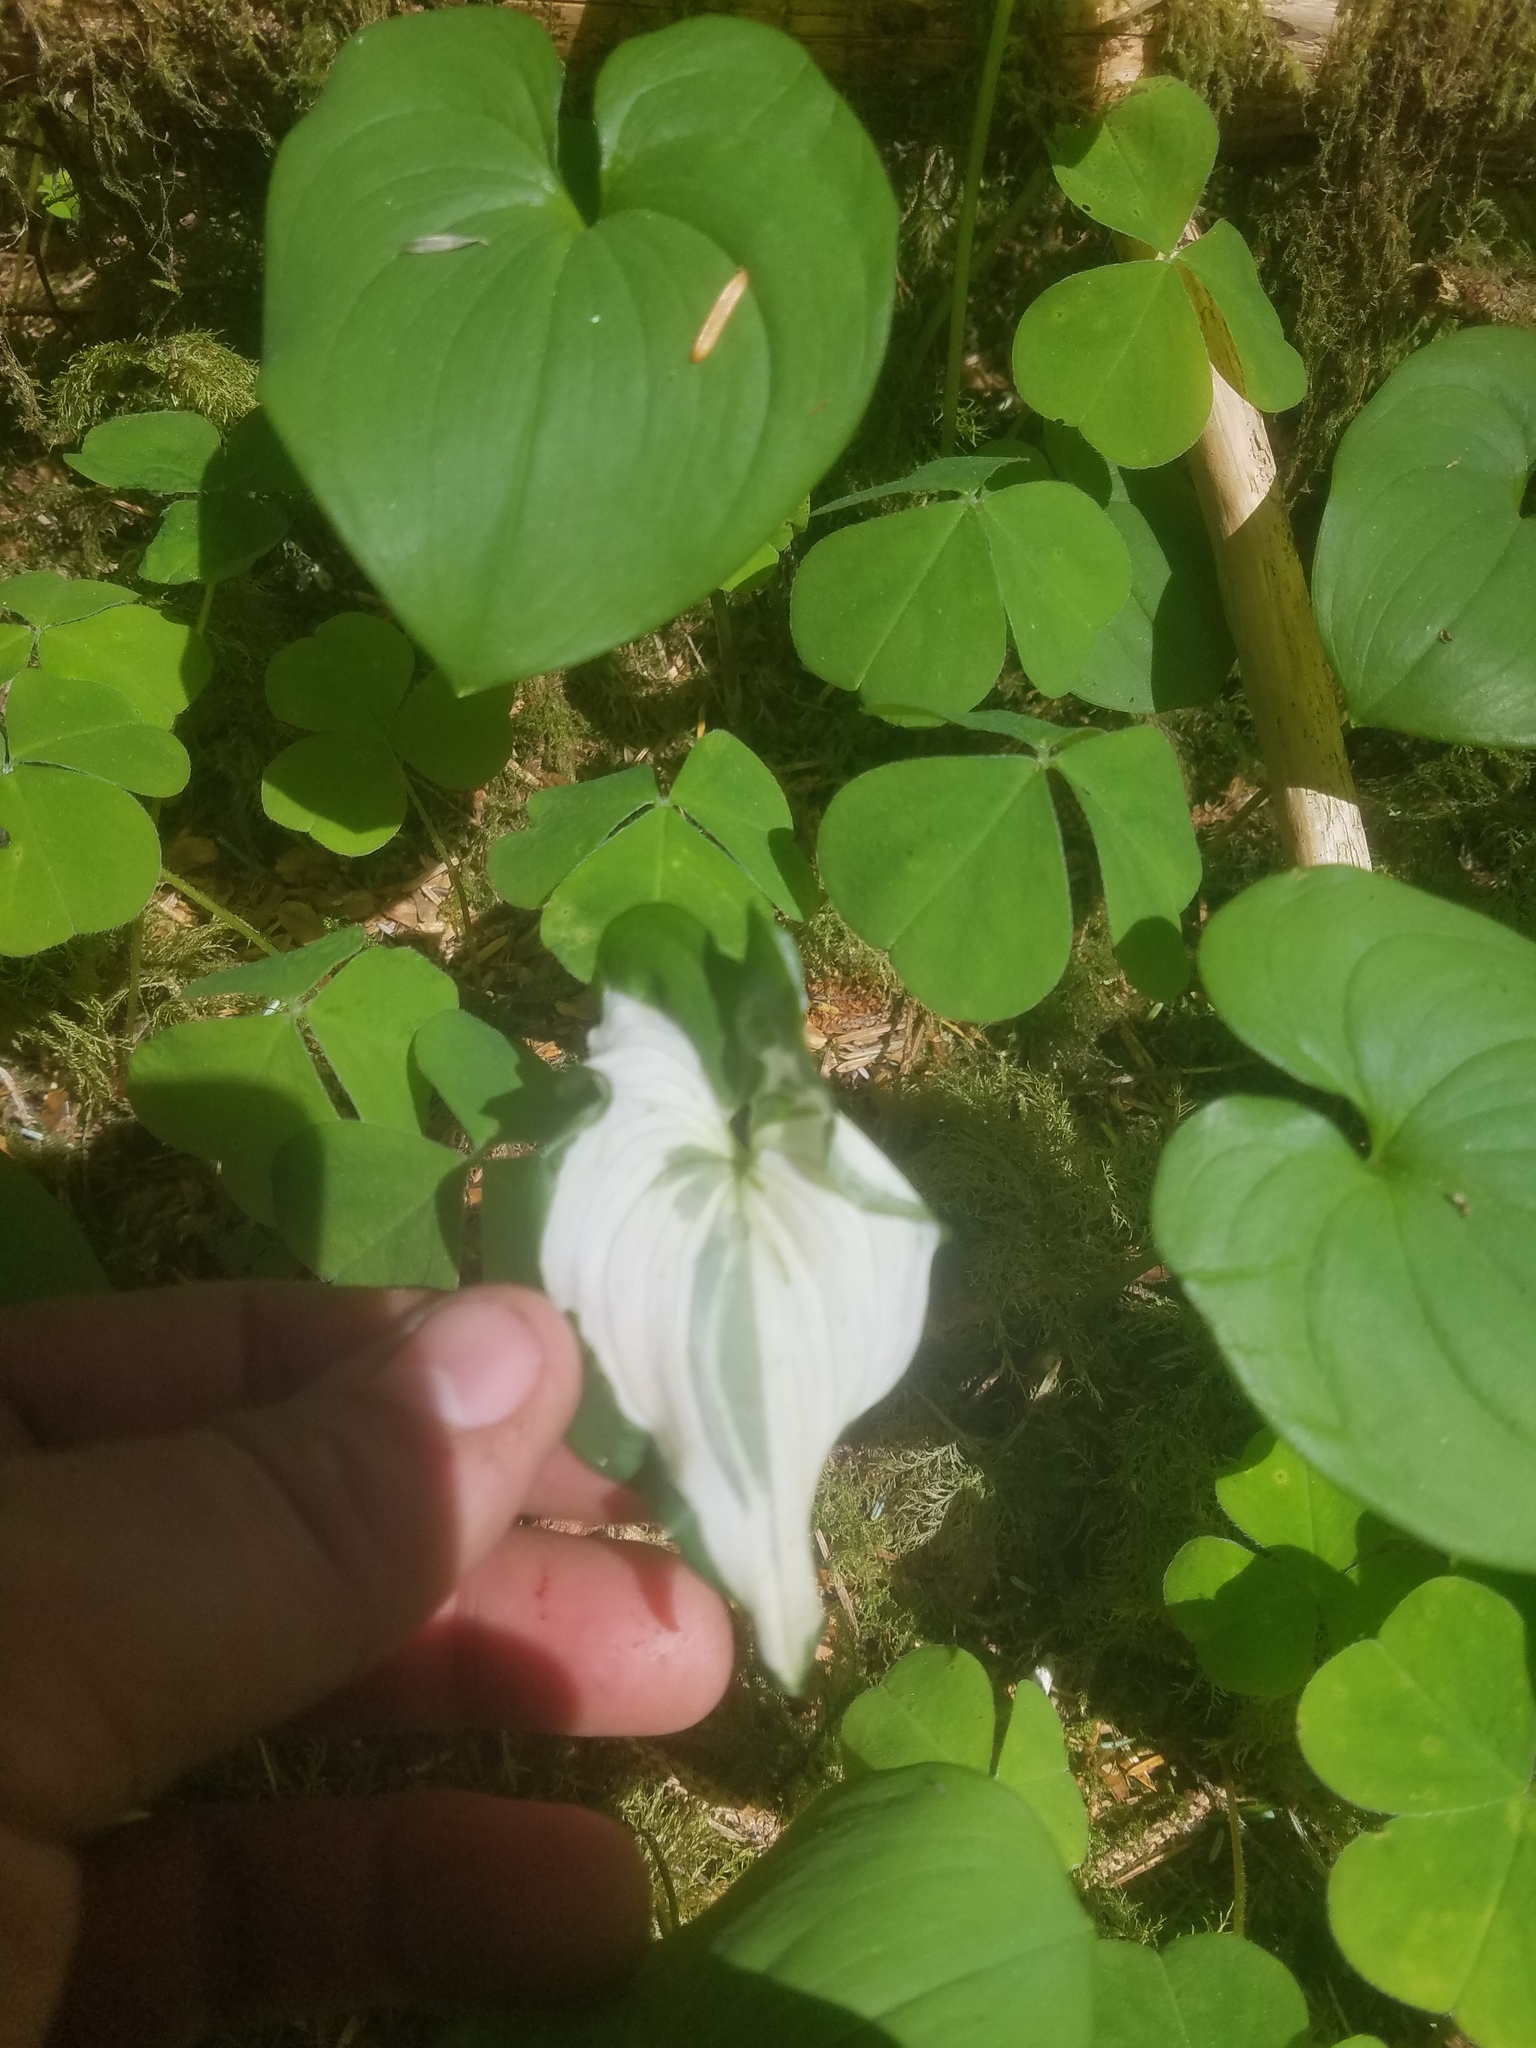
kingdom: Plantae
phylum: Tracheophyta
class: Liliopsida
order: Asparagales
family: Asparagaceae
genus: Maianthemum
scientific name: Maianthemum dilatatum
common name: False lily-of-the-valley
